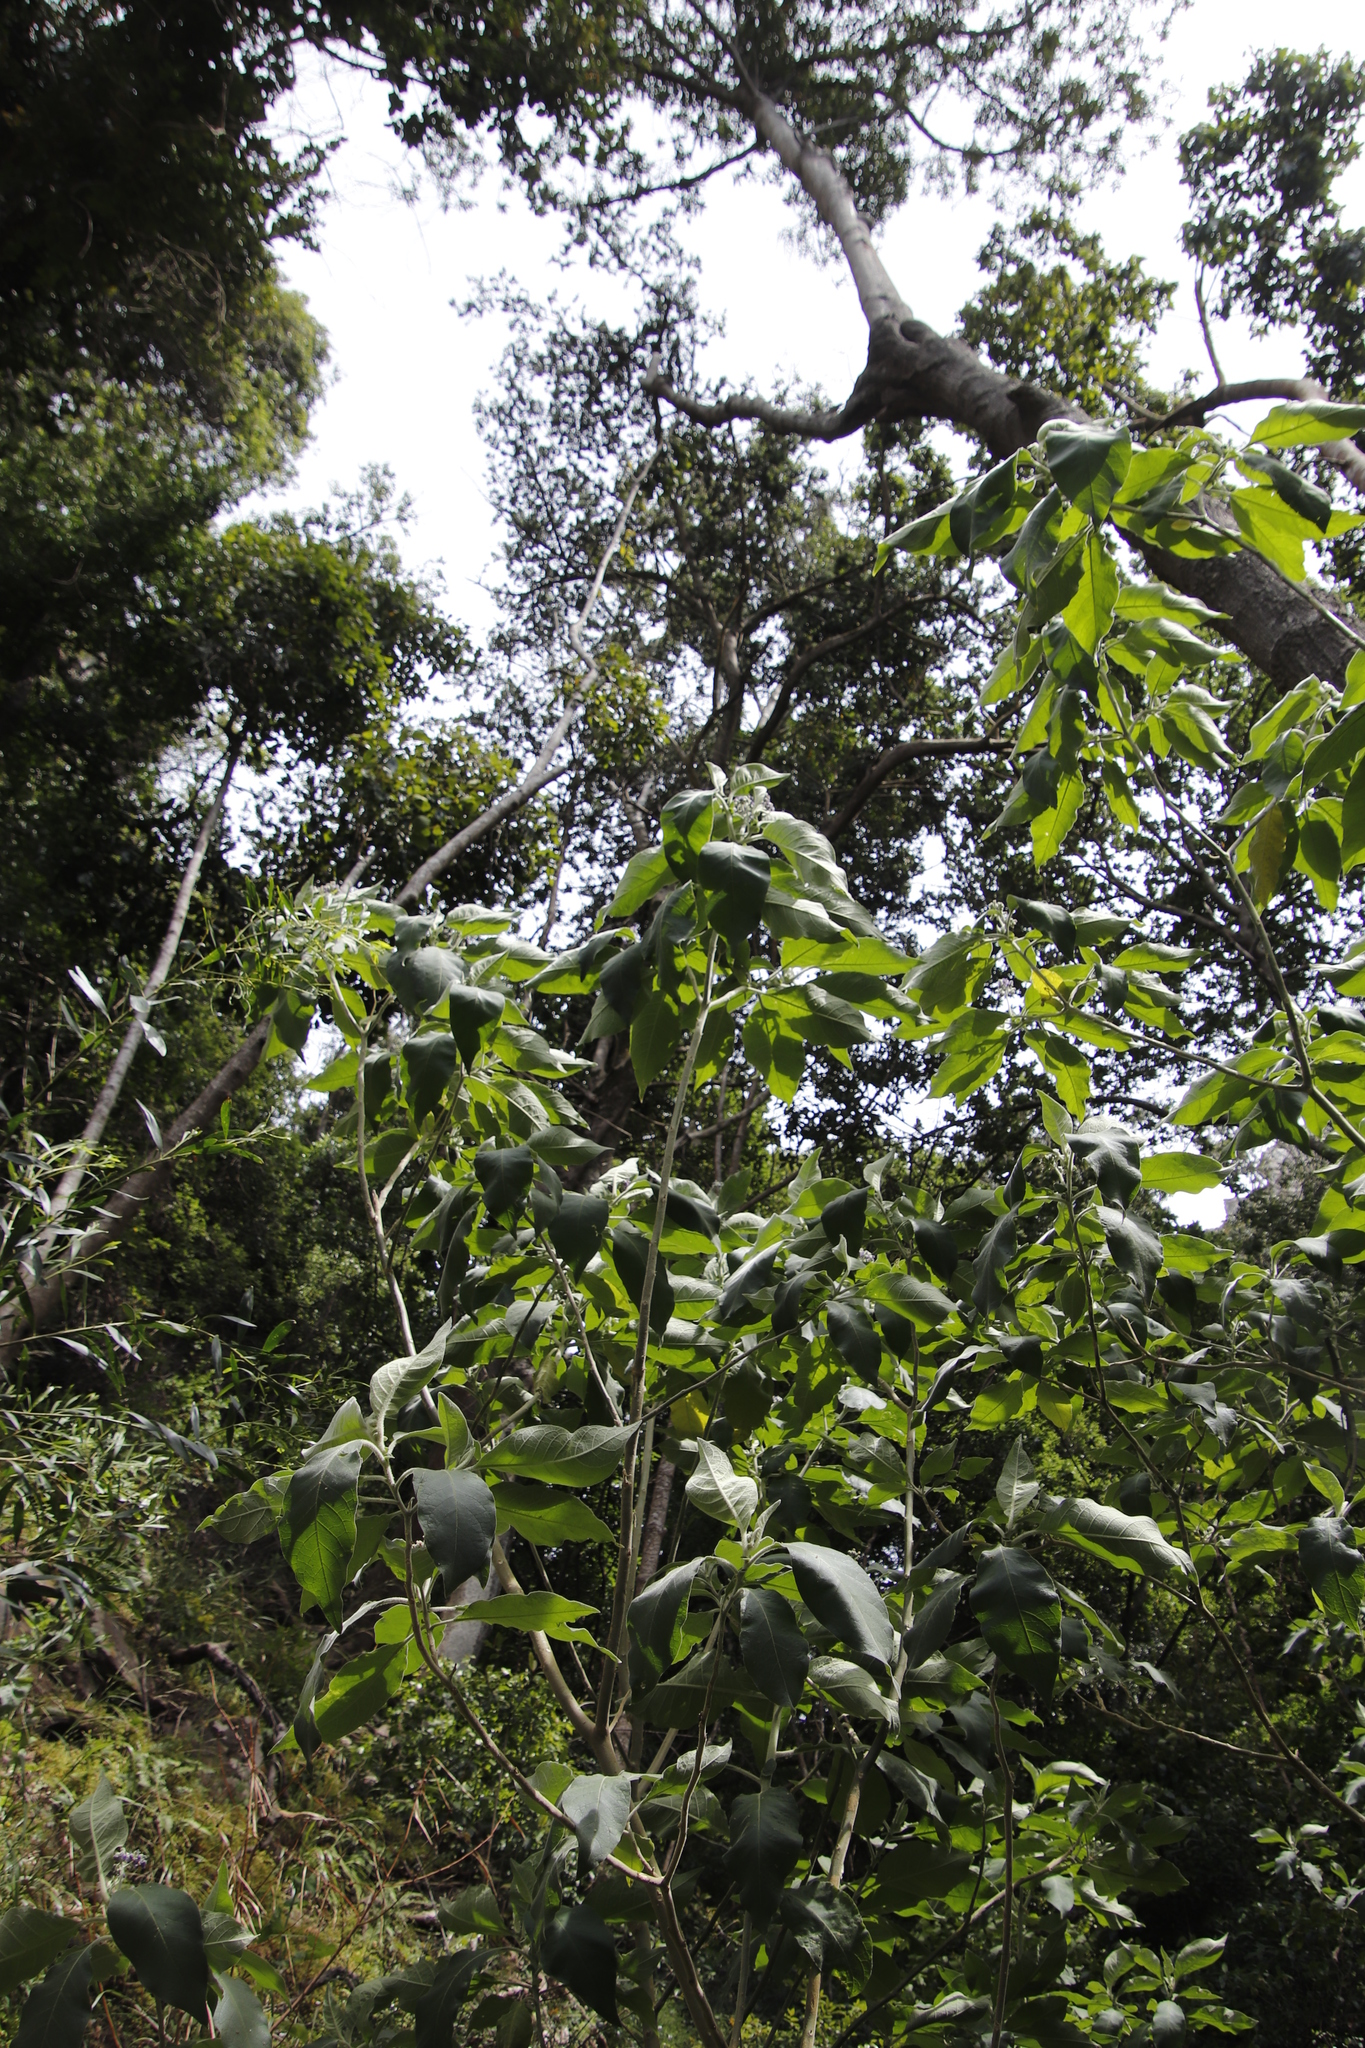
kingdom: Plantae
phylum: Tracheophyta
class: Magnoliopsida
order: Solanales
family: Solanaceae
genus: Solanum
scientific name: Solanum mauritianum
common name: Earleaf nightshade
